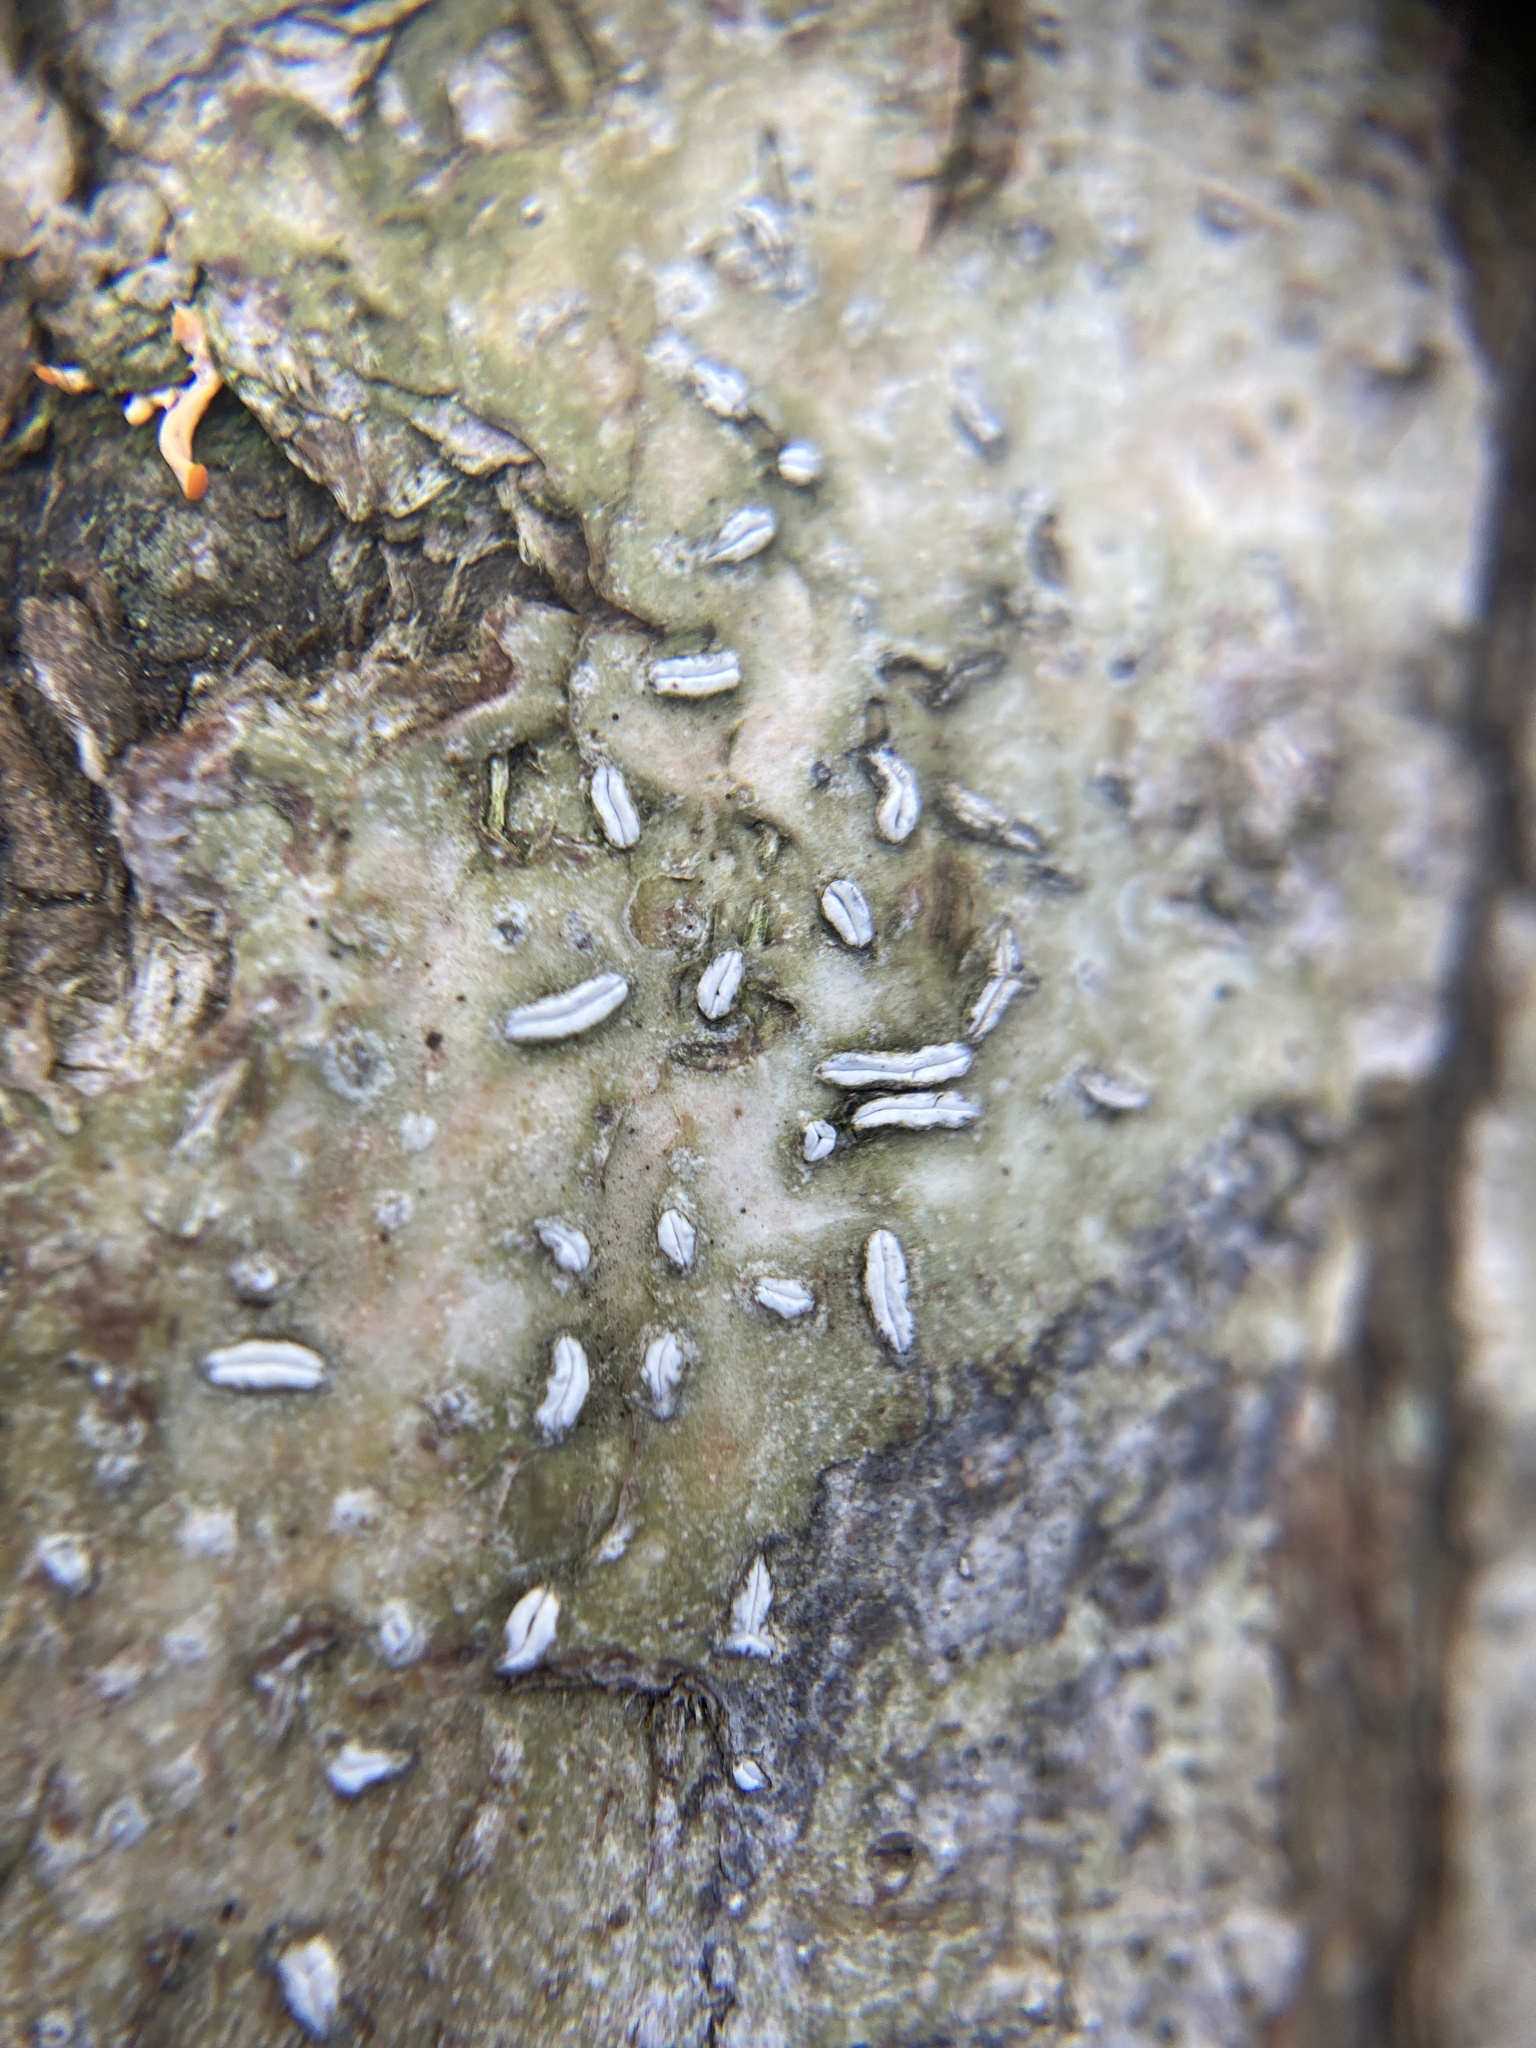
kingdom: Fungi
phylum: Ascomycota
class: Lecanoromycetes
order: Ostropales
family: Graphidaceae
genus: Dyplolabia
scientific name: Dyplolabia afzelii
